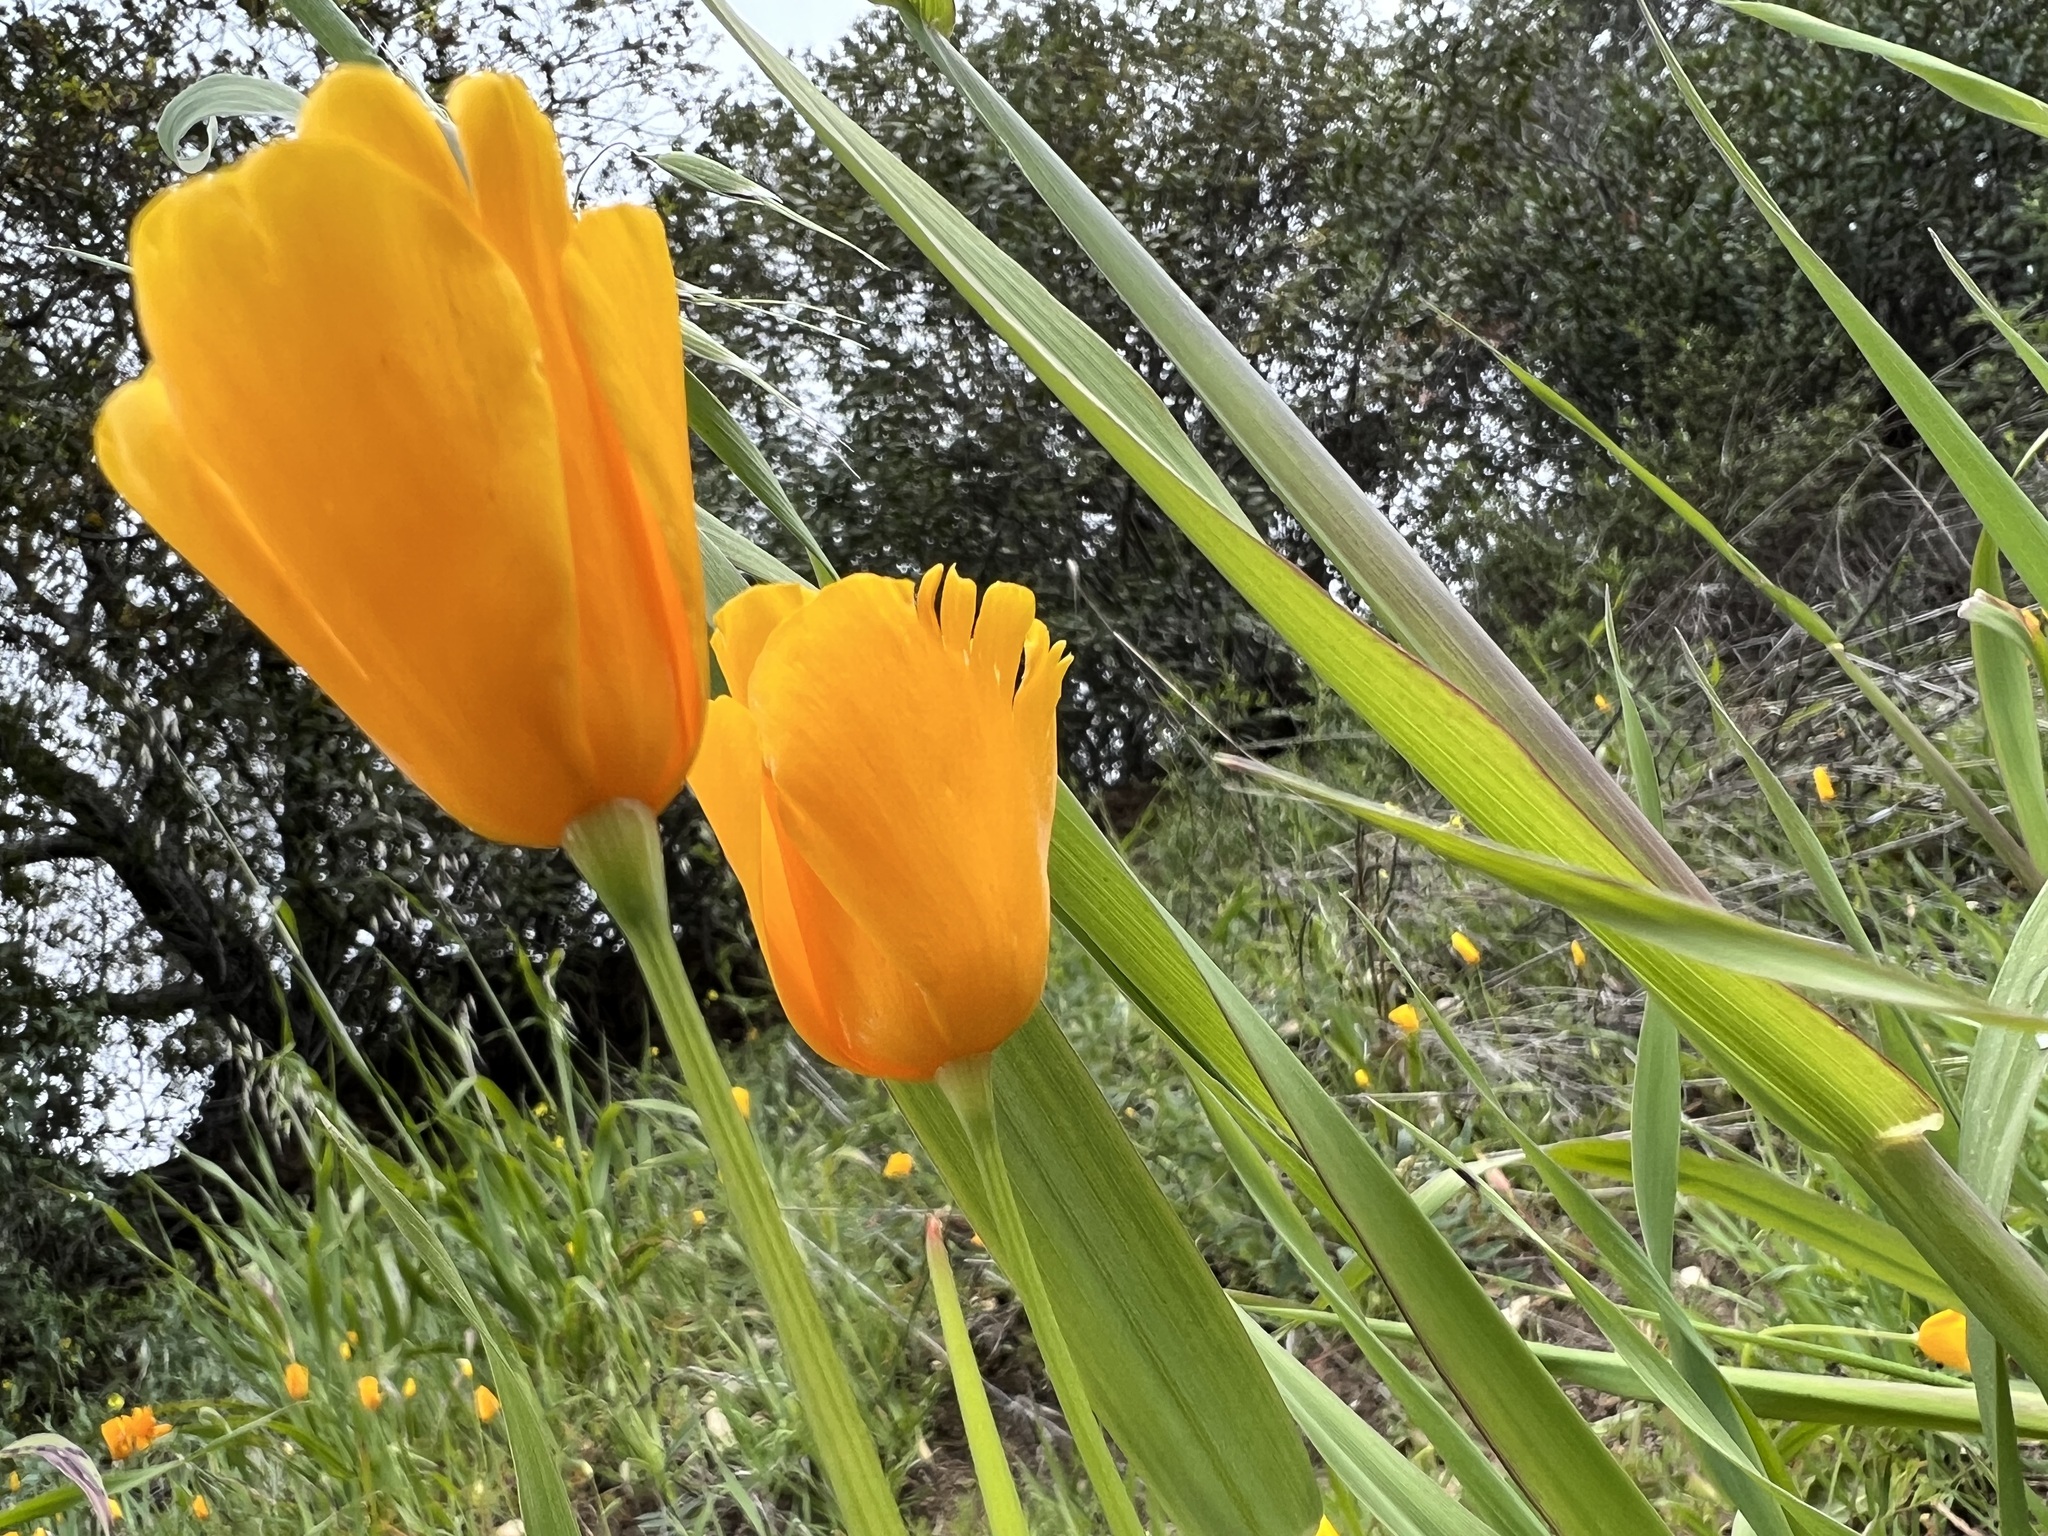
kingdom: Plantae
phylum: Tracheophyta
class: Magnoliopsida
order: Ranunculales
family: Papaveraceae
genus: Eschscholzia
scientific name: Eschscholzia caespitosa
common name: Tufted california-poppy
